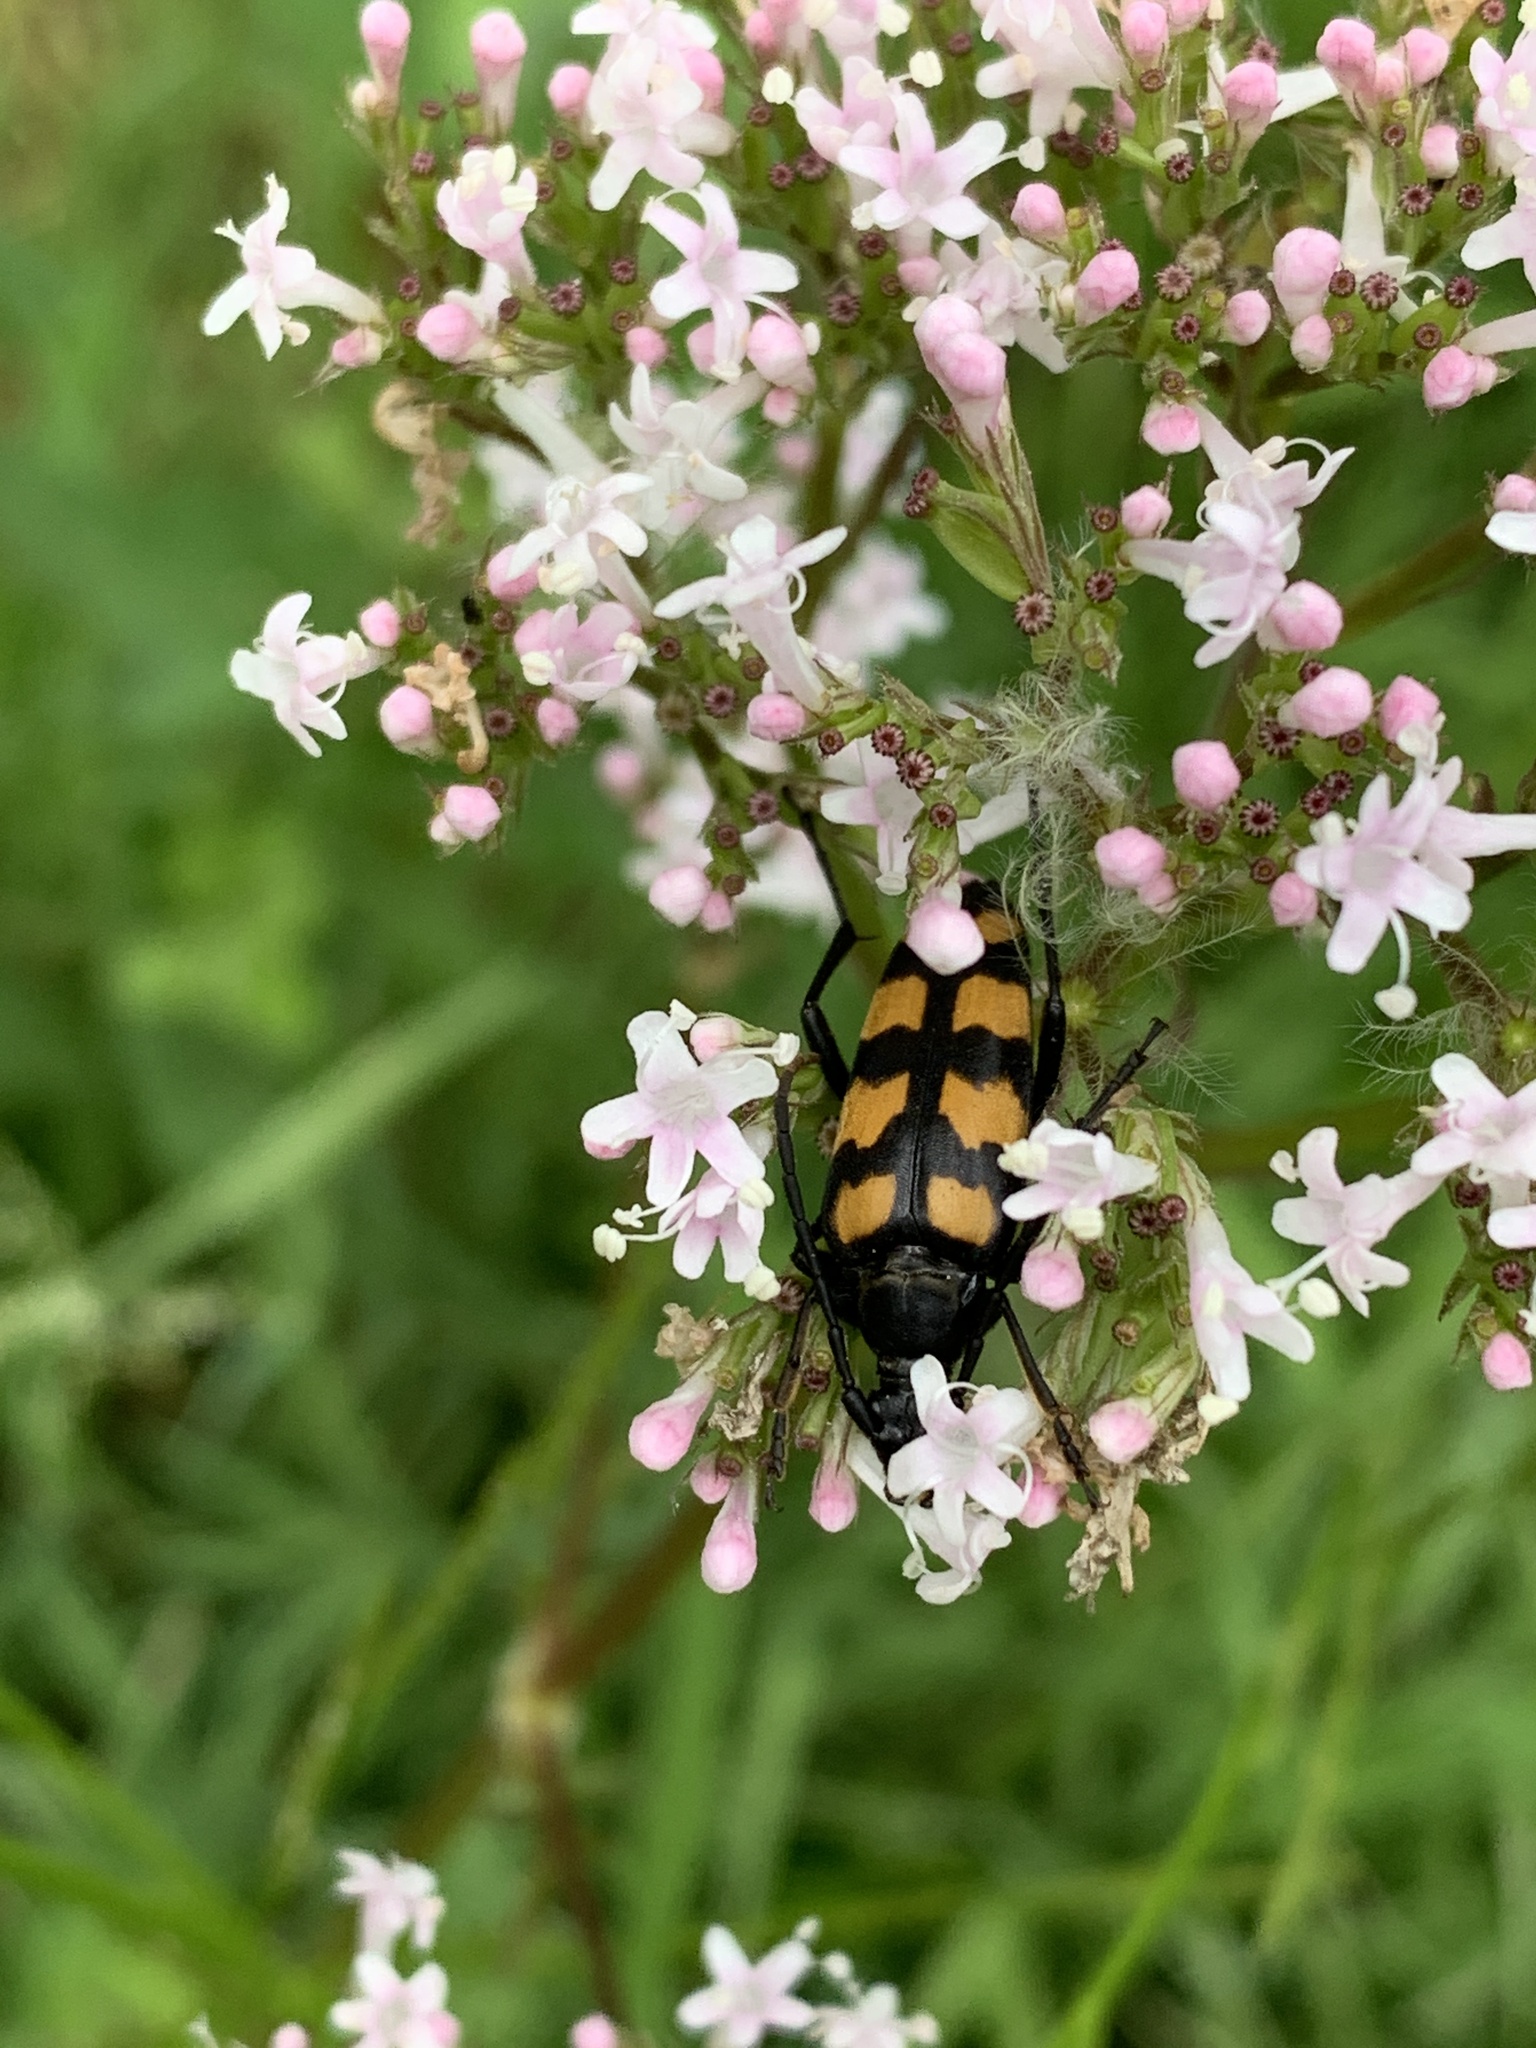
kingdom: Animalia
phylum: Arthropoda
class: Insecta
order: Coleoptera
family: Cerambycidae
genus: Leptura
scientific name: Leptura quadrifasciata
